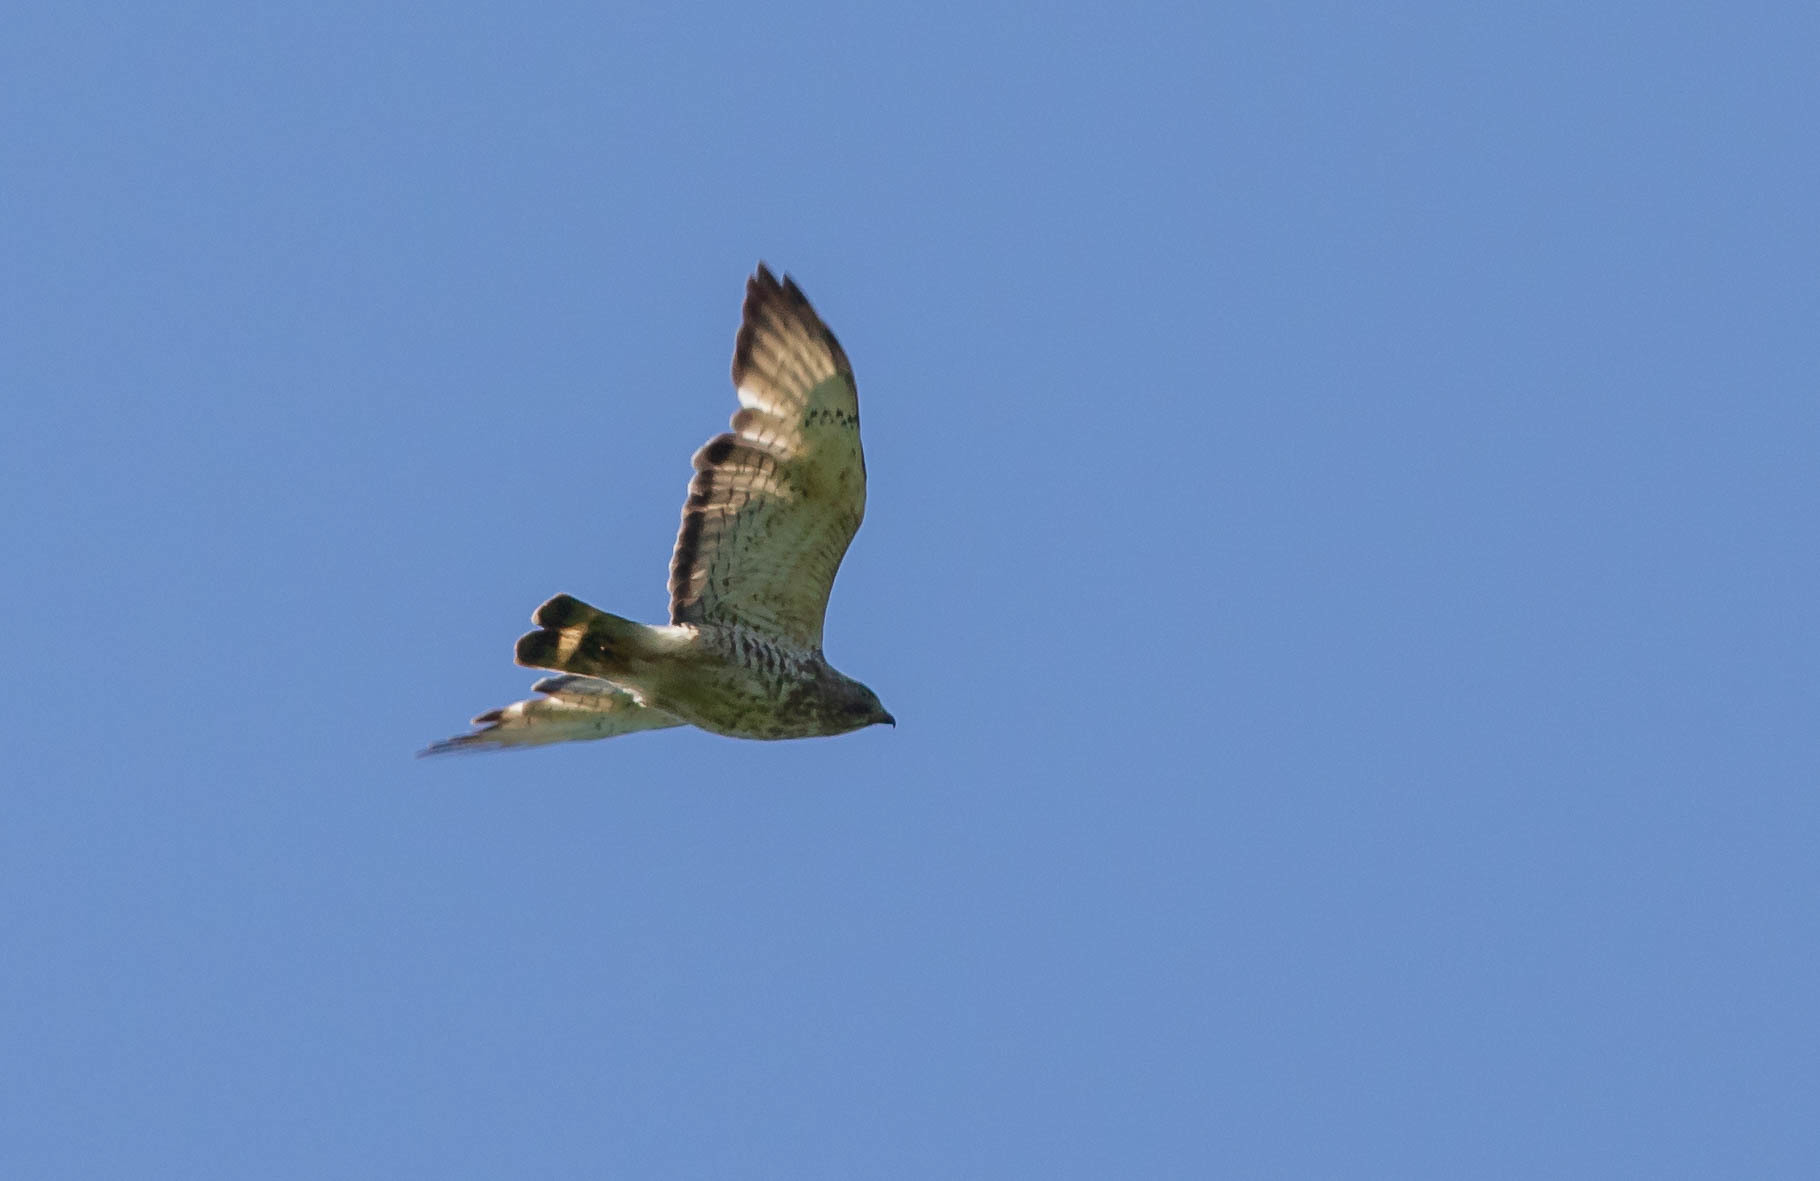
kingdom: Animalia
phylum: Chordata
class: Aves
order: Accipitriformes
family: Accipitridae
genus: Buteo
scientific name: Buteo platypterus
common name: Broad-winged hawk
